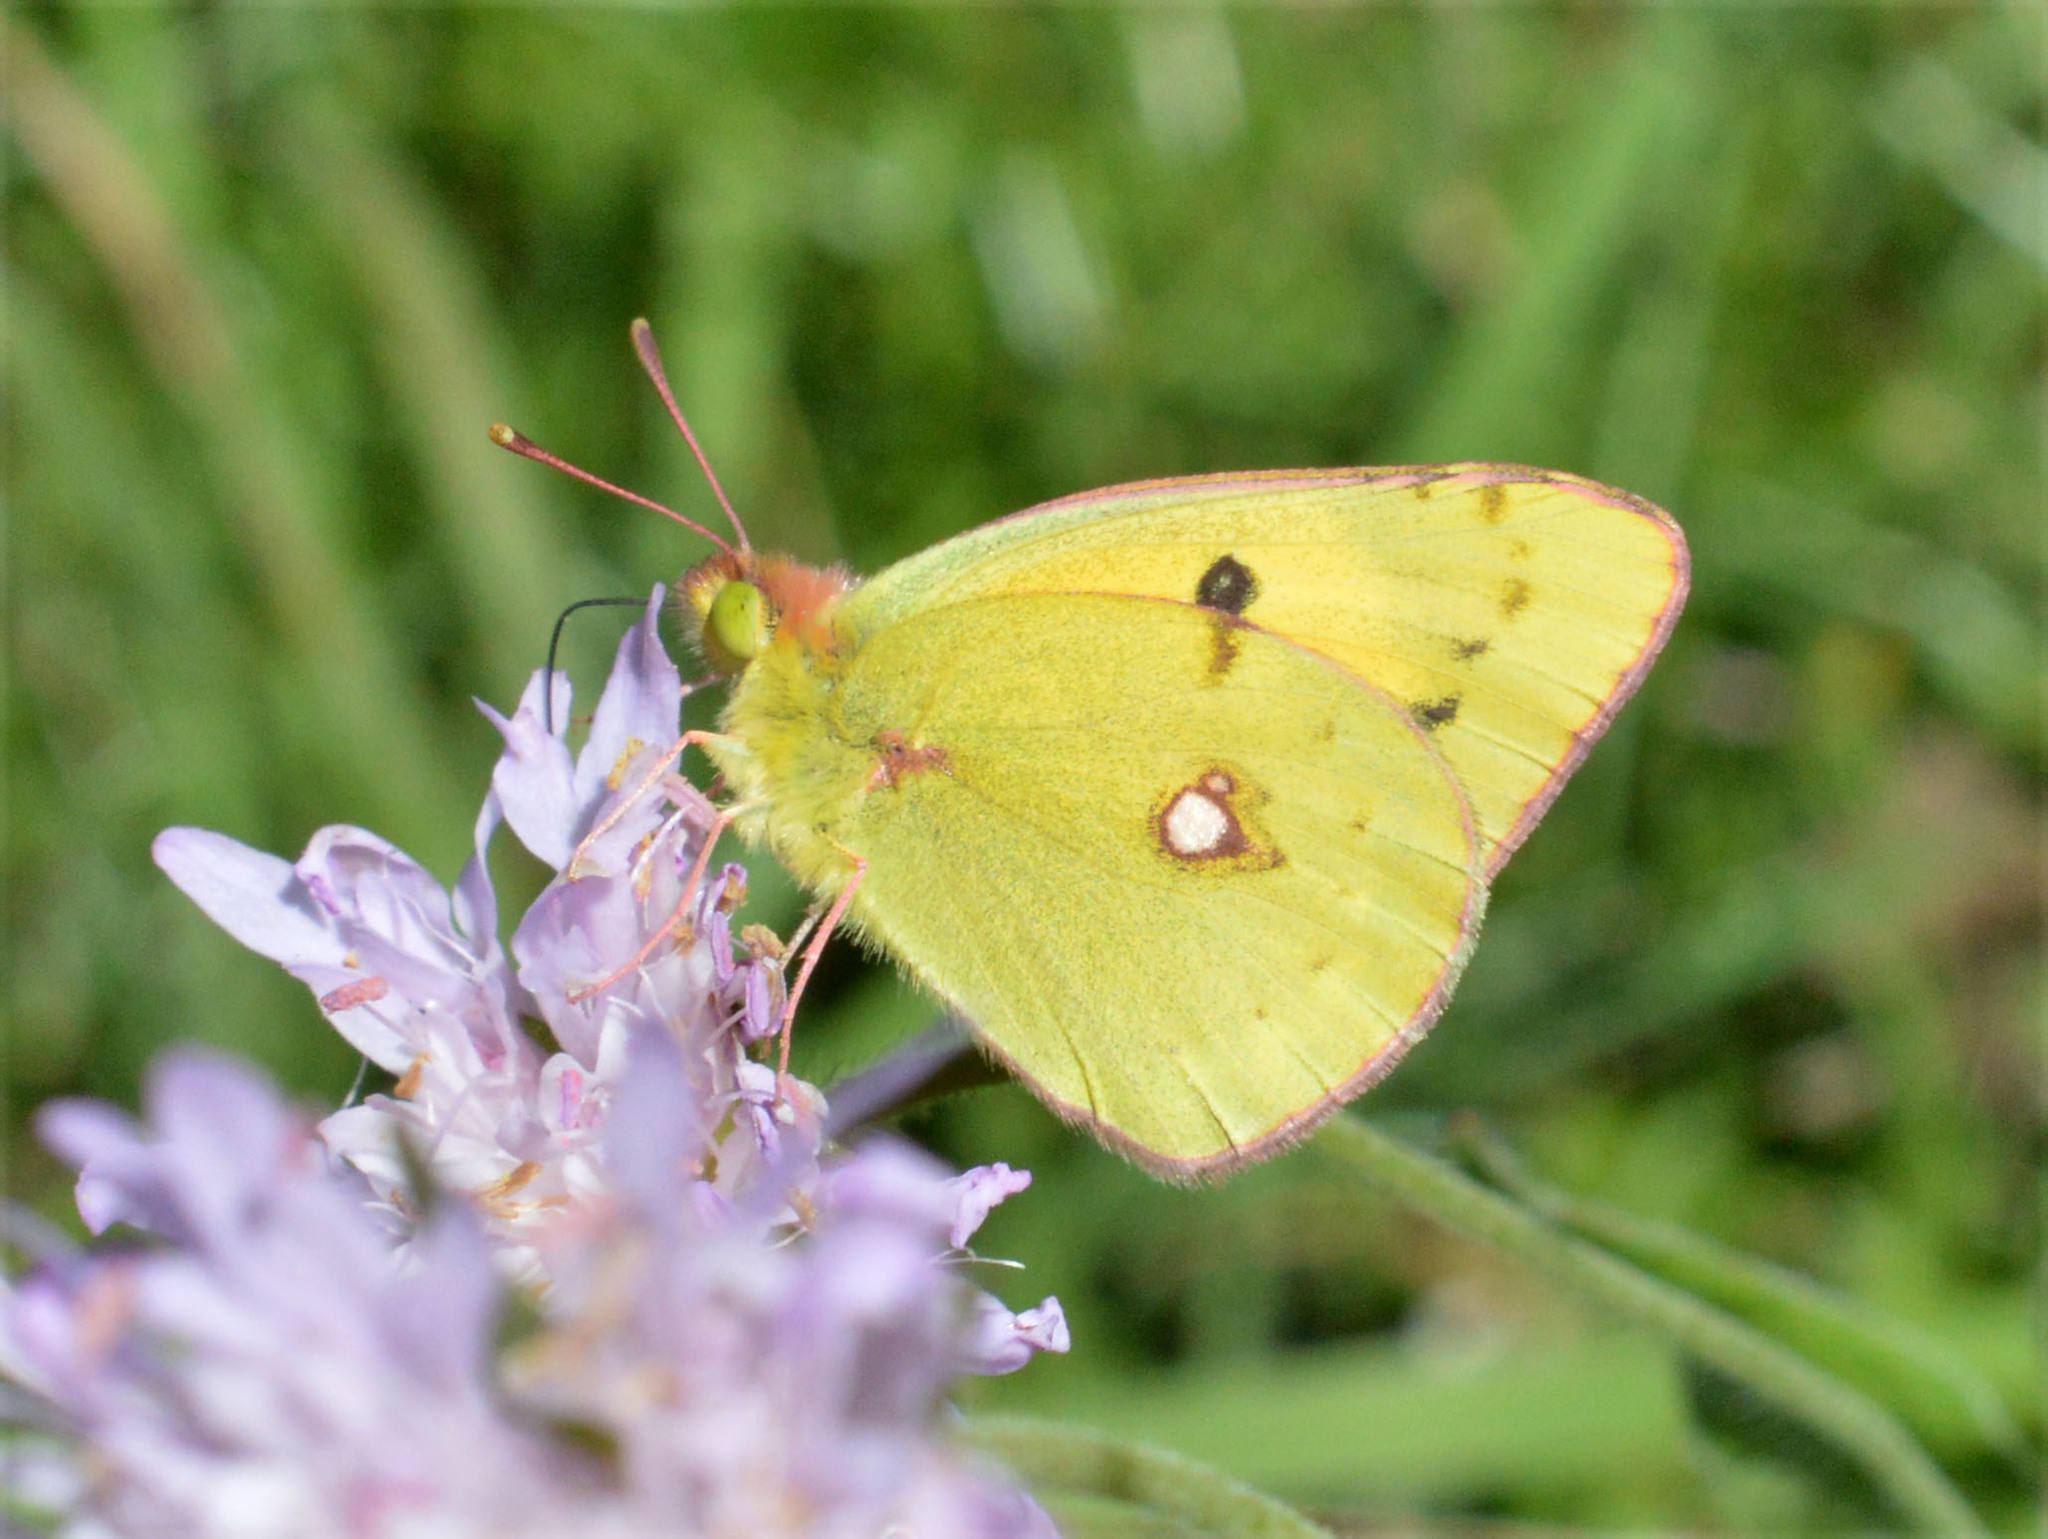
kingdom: Animalia
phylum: Arthropoda
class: Insecta
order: Lepidoptera
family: Pieridae
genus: Colias
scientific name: Colias croceus
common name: Clouded yellow
